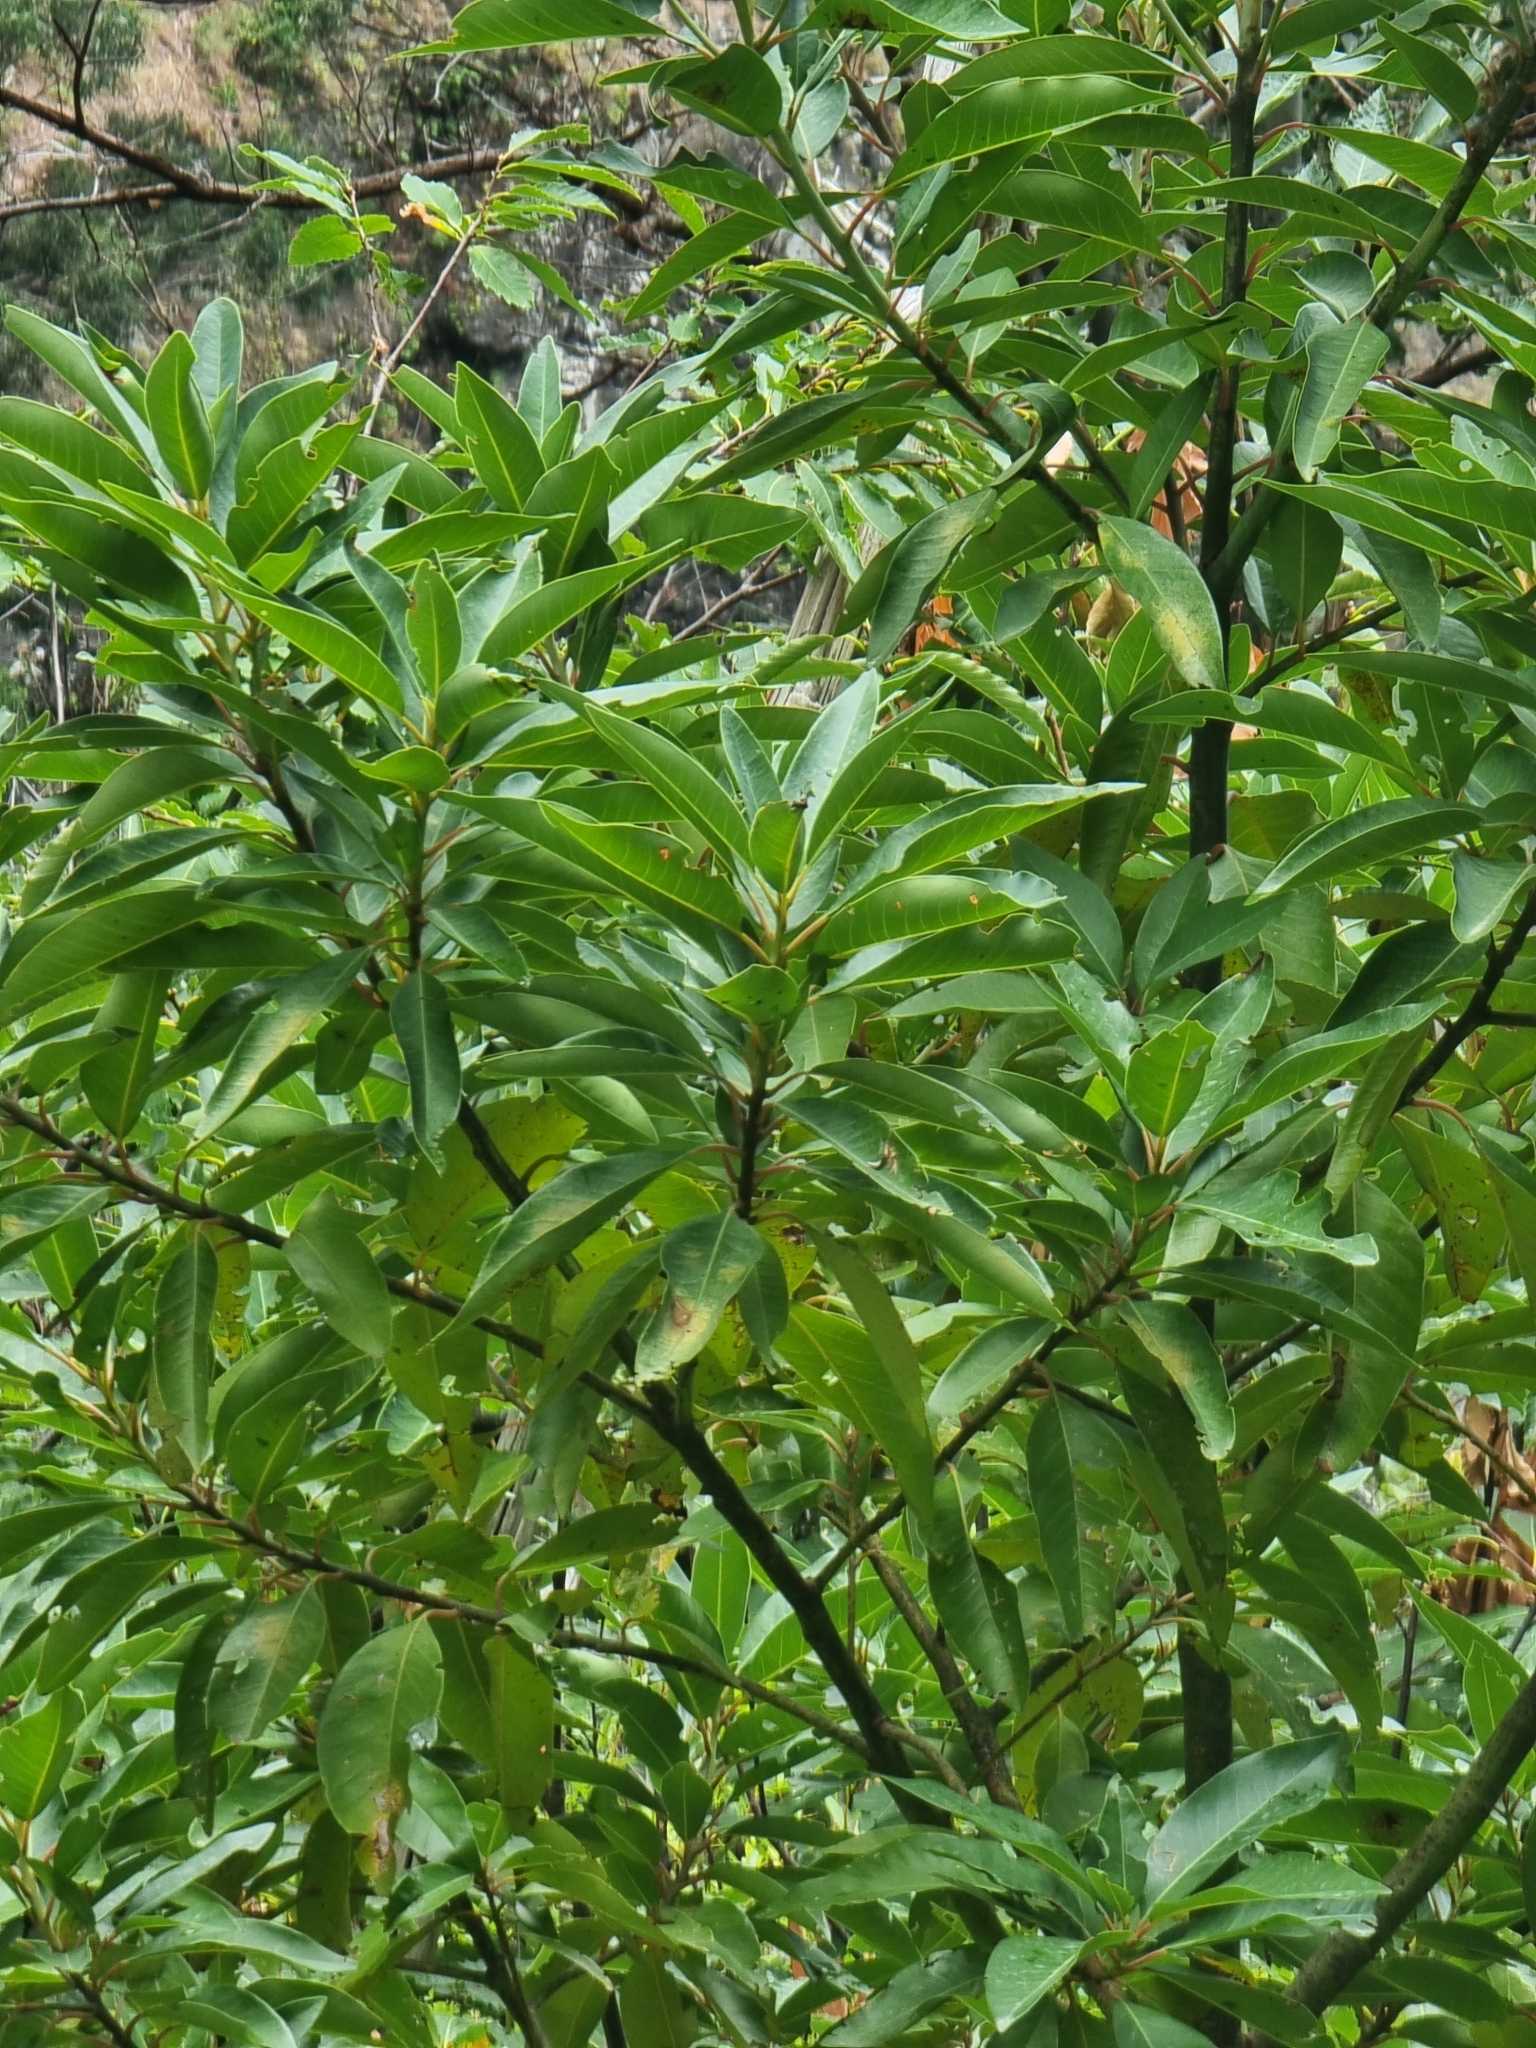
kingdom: Plantae
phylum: Tracheophyta
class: Magnoliopsida
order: Laurales
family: Lauraceae
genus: Persea
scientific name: Persea indica
